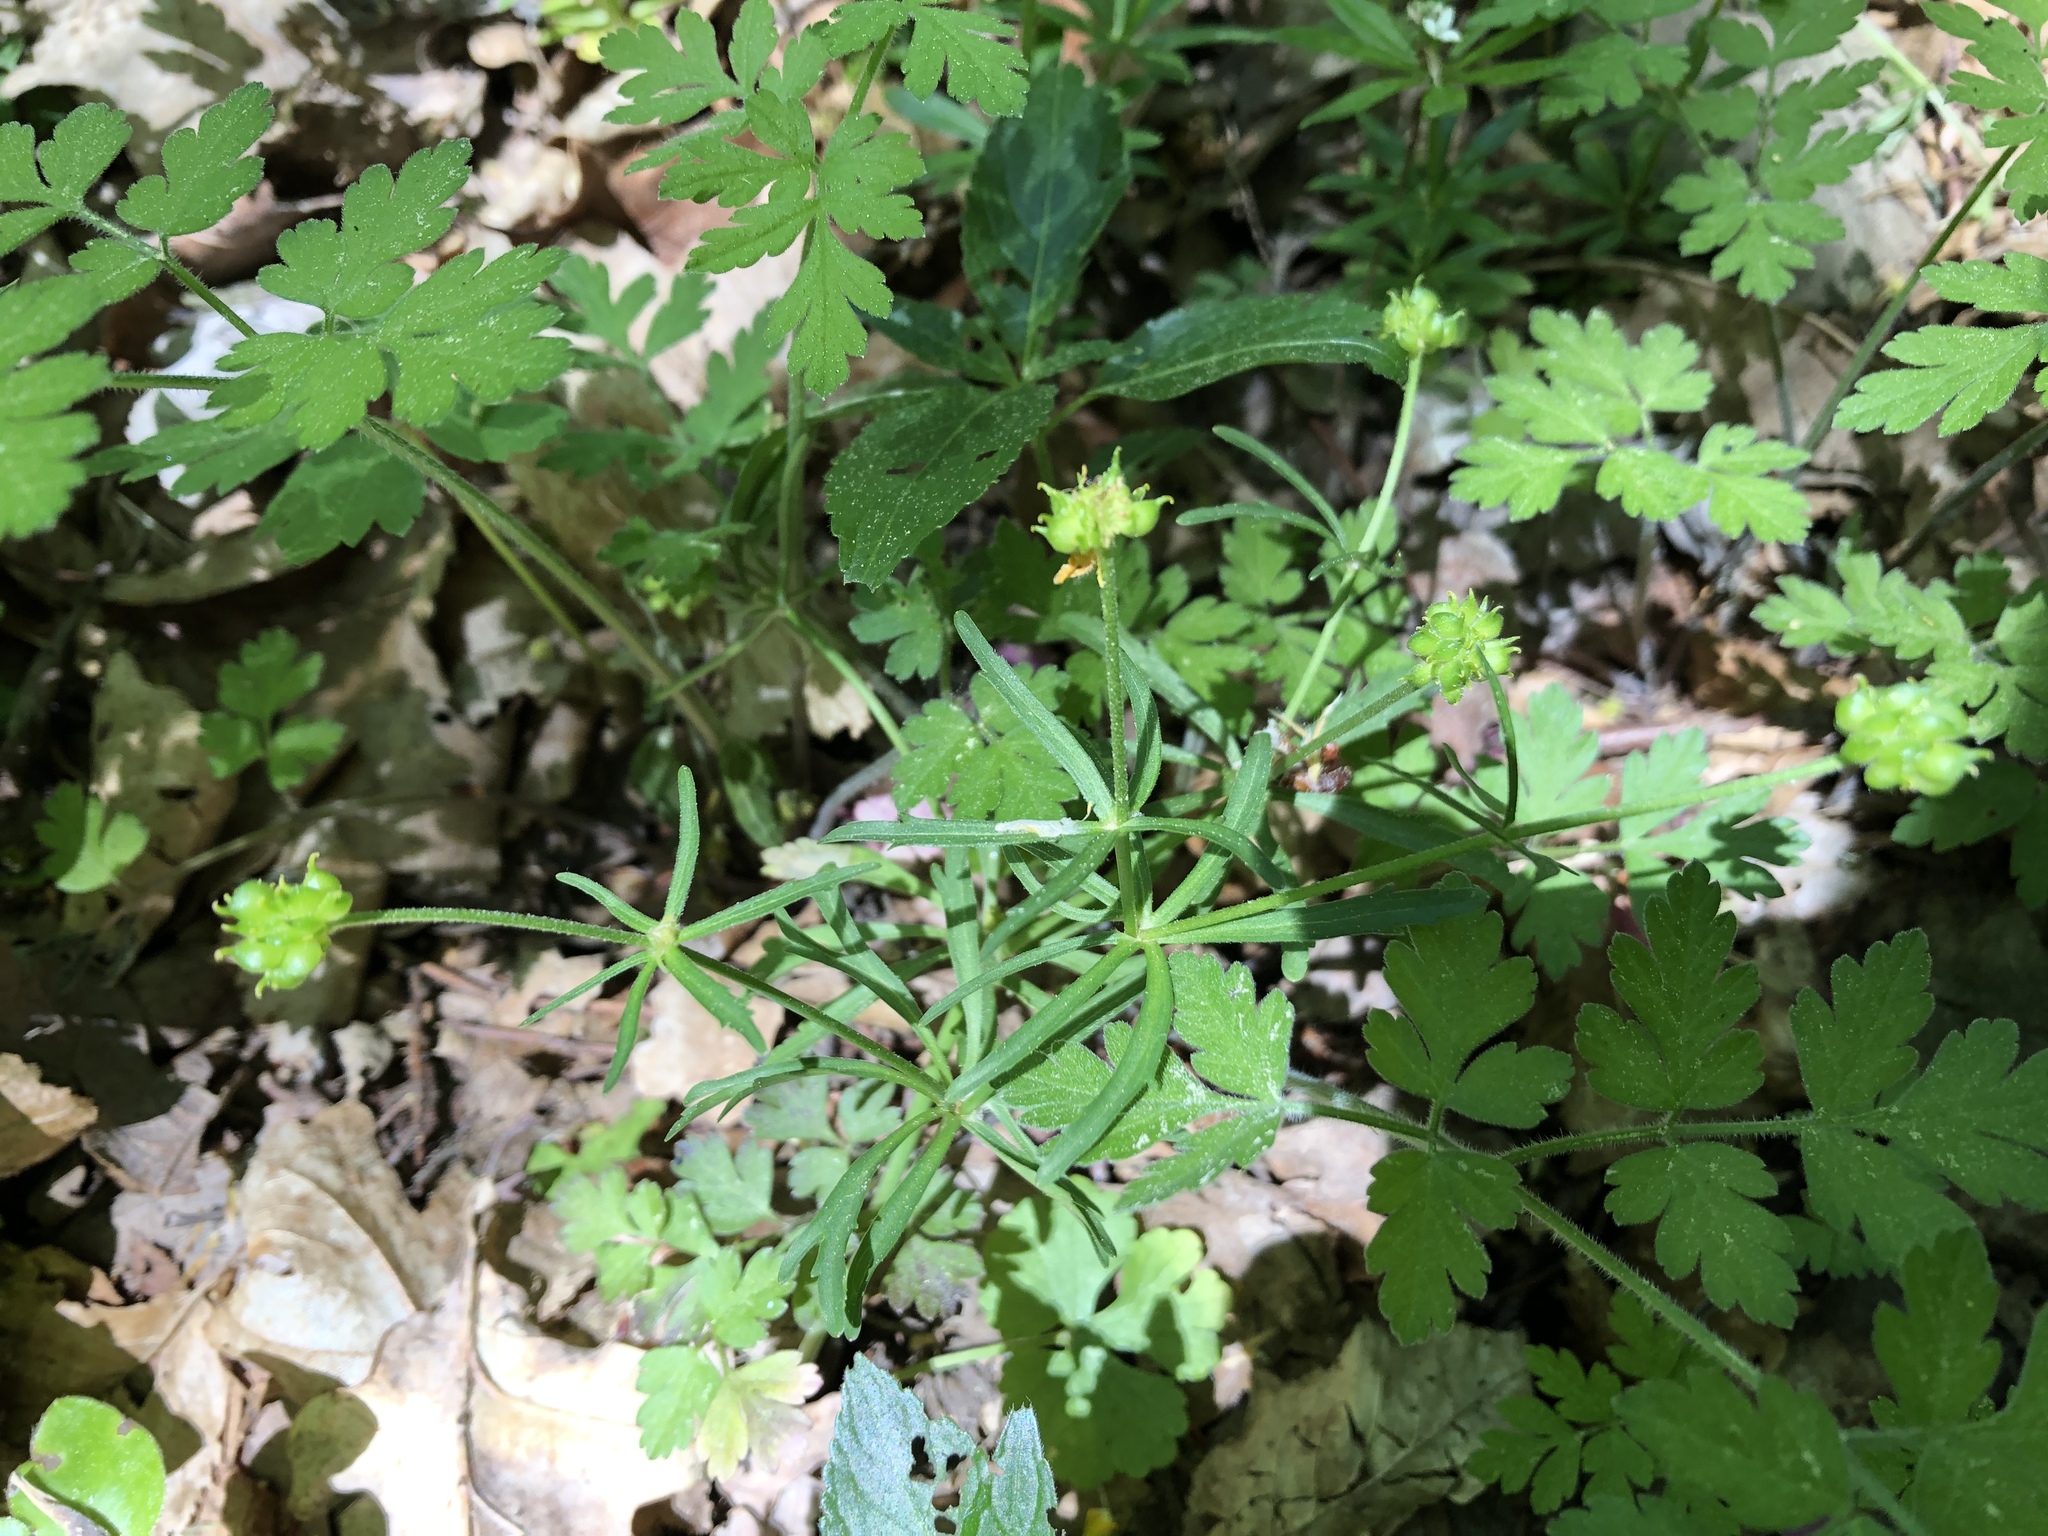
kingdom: Plantae
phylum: Tracheophyta
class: Magnoliopsida
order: Ranunculales
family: Ranunculaceae
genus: Ranunculus
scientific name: Ranunculus auricomus
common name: Goldilocks buttercup
